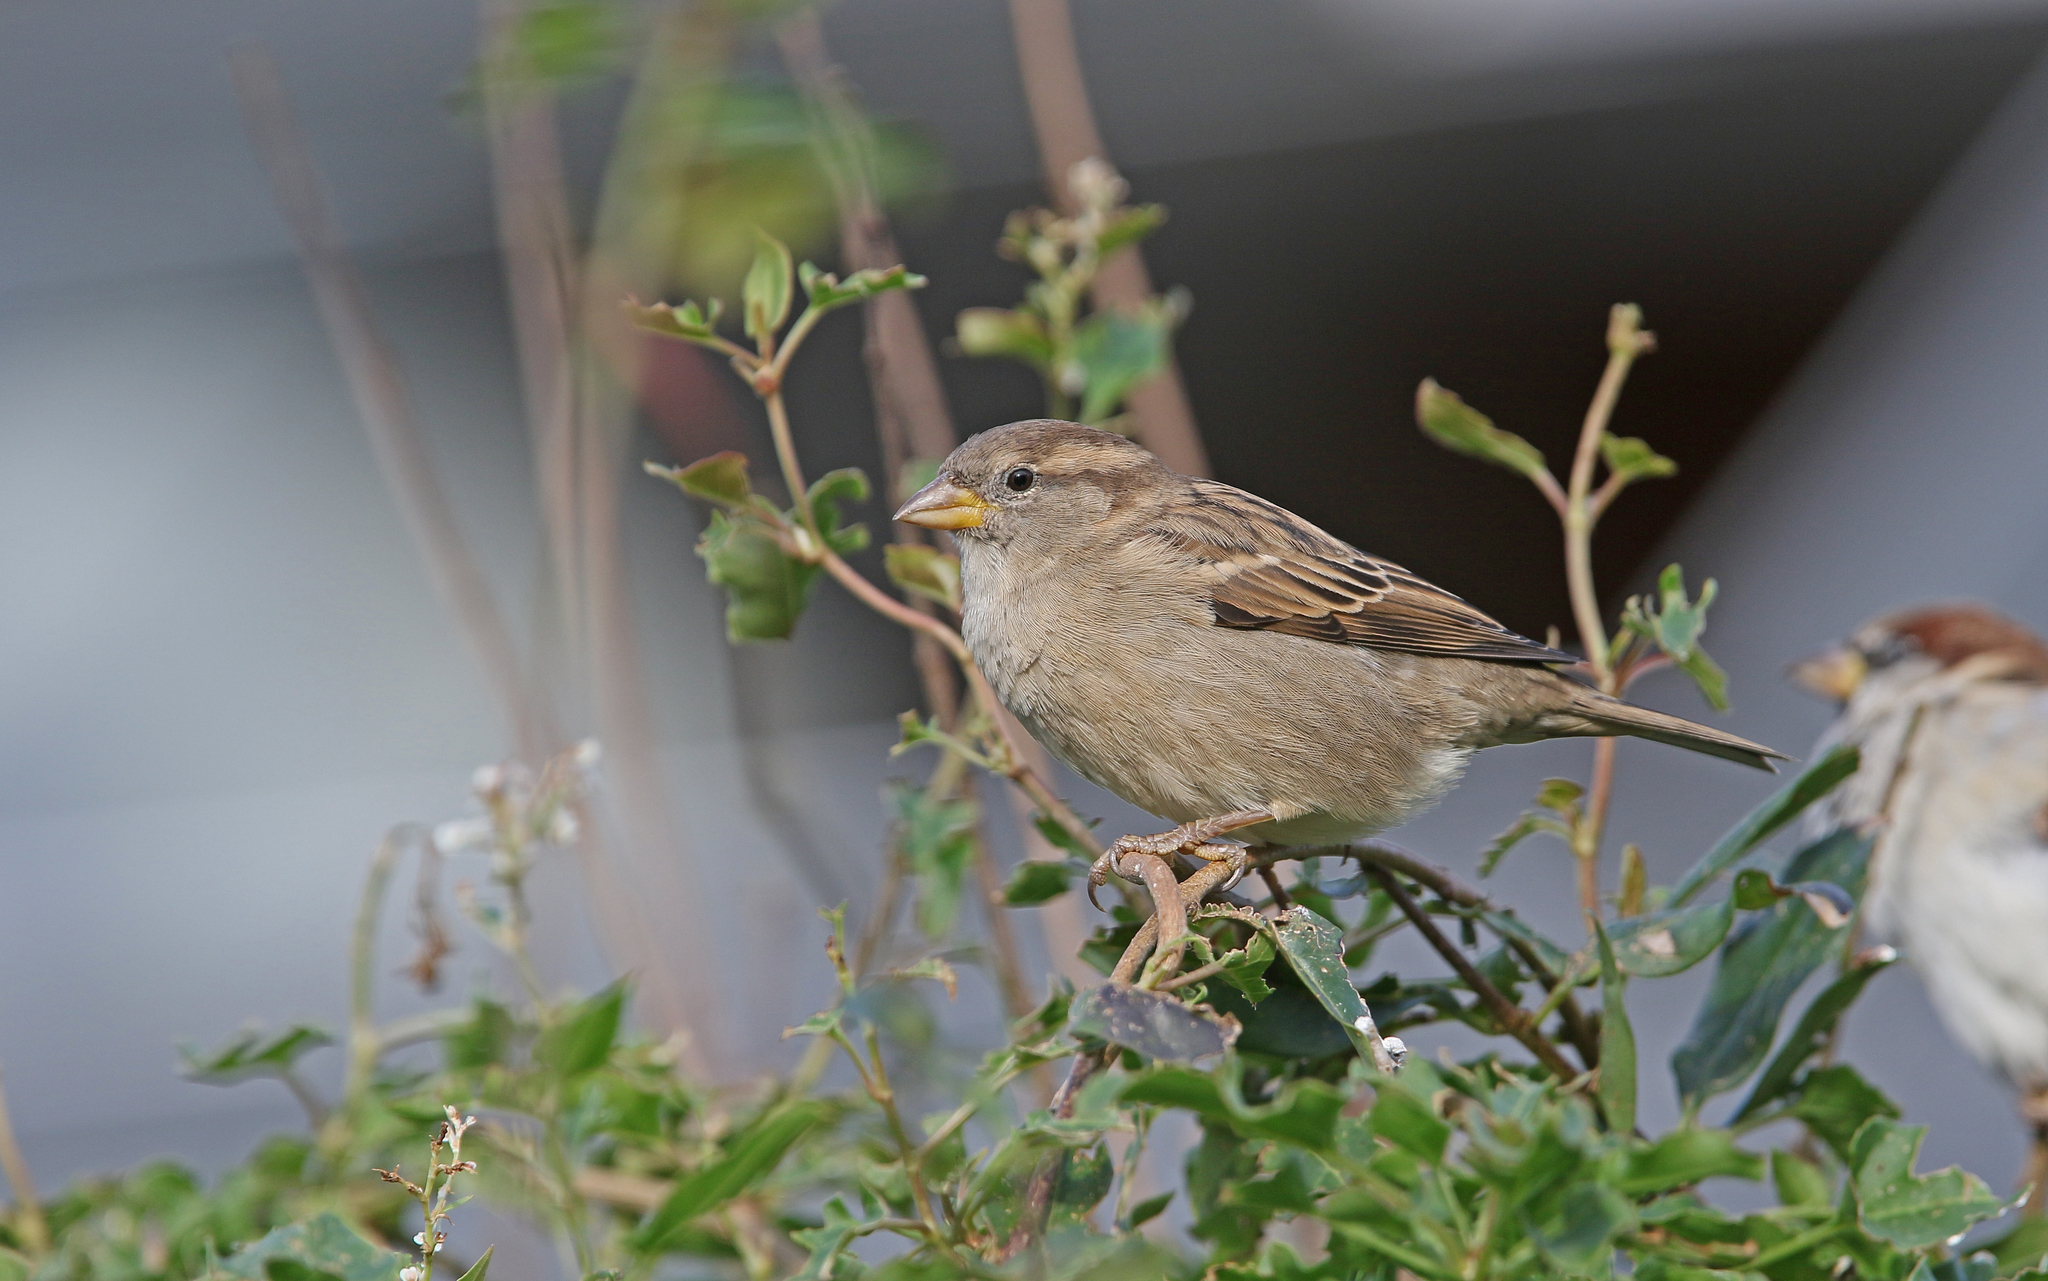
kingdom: Animalia
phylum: Chordata
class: Aves
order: Passeriformes
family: Passeridae
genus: Passer
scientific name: Passer domesticus
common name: House sparrow
